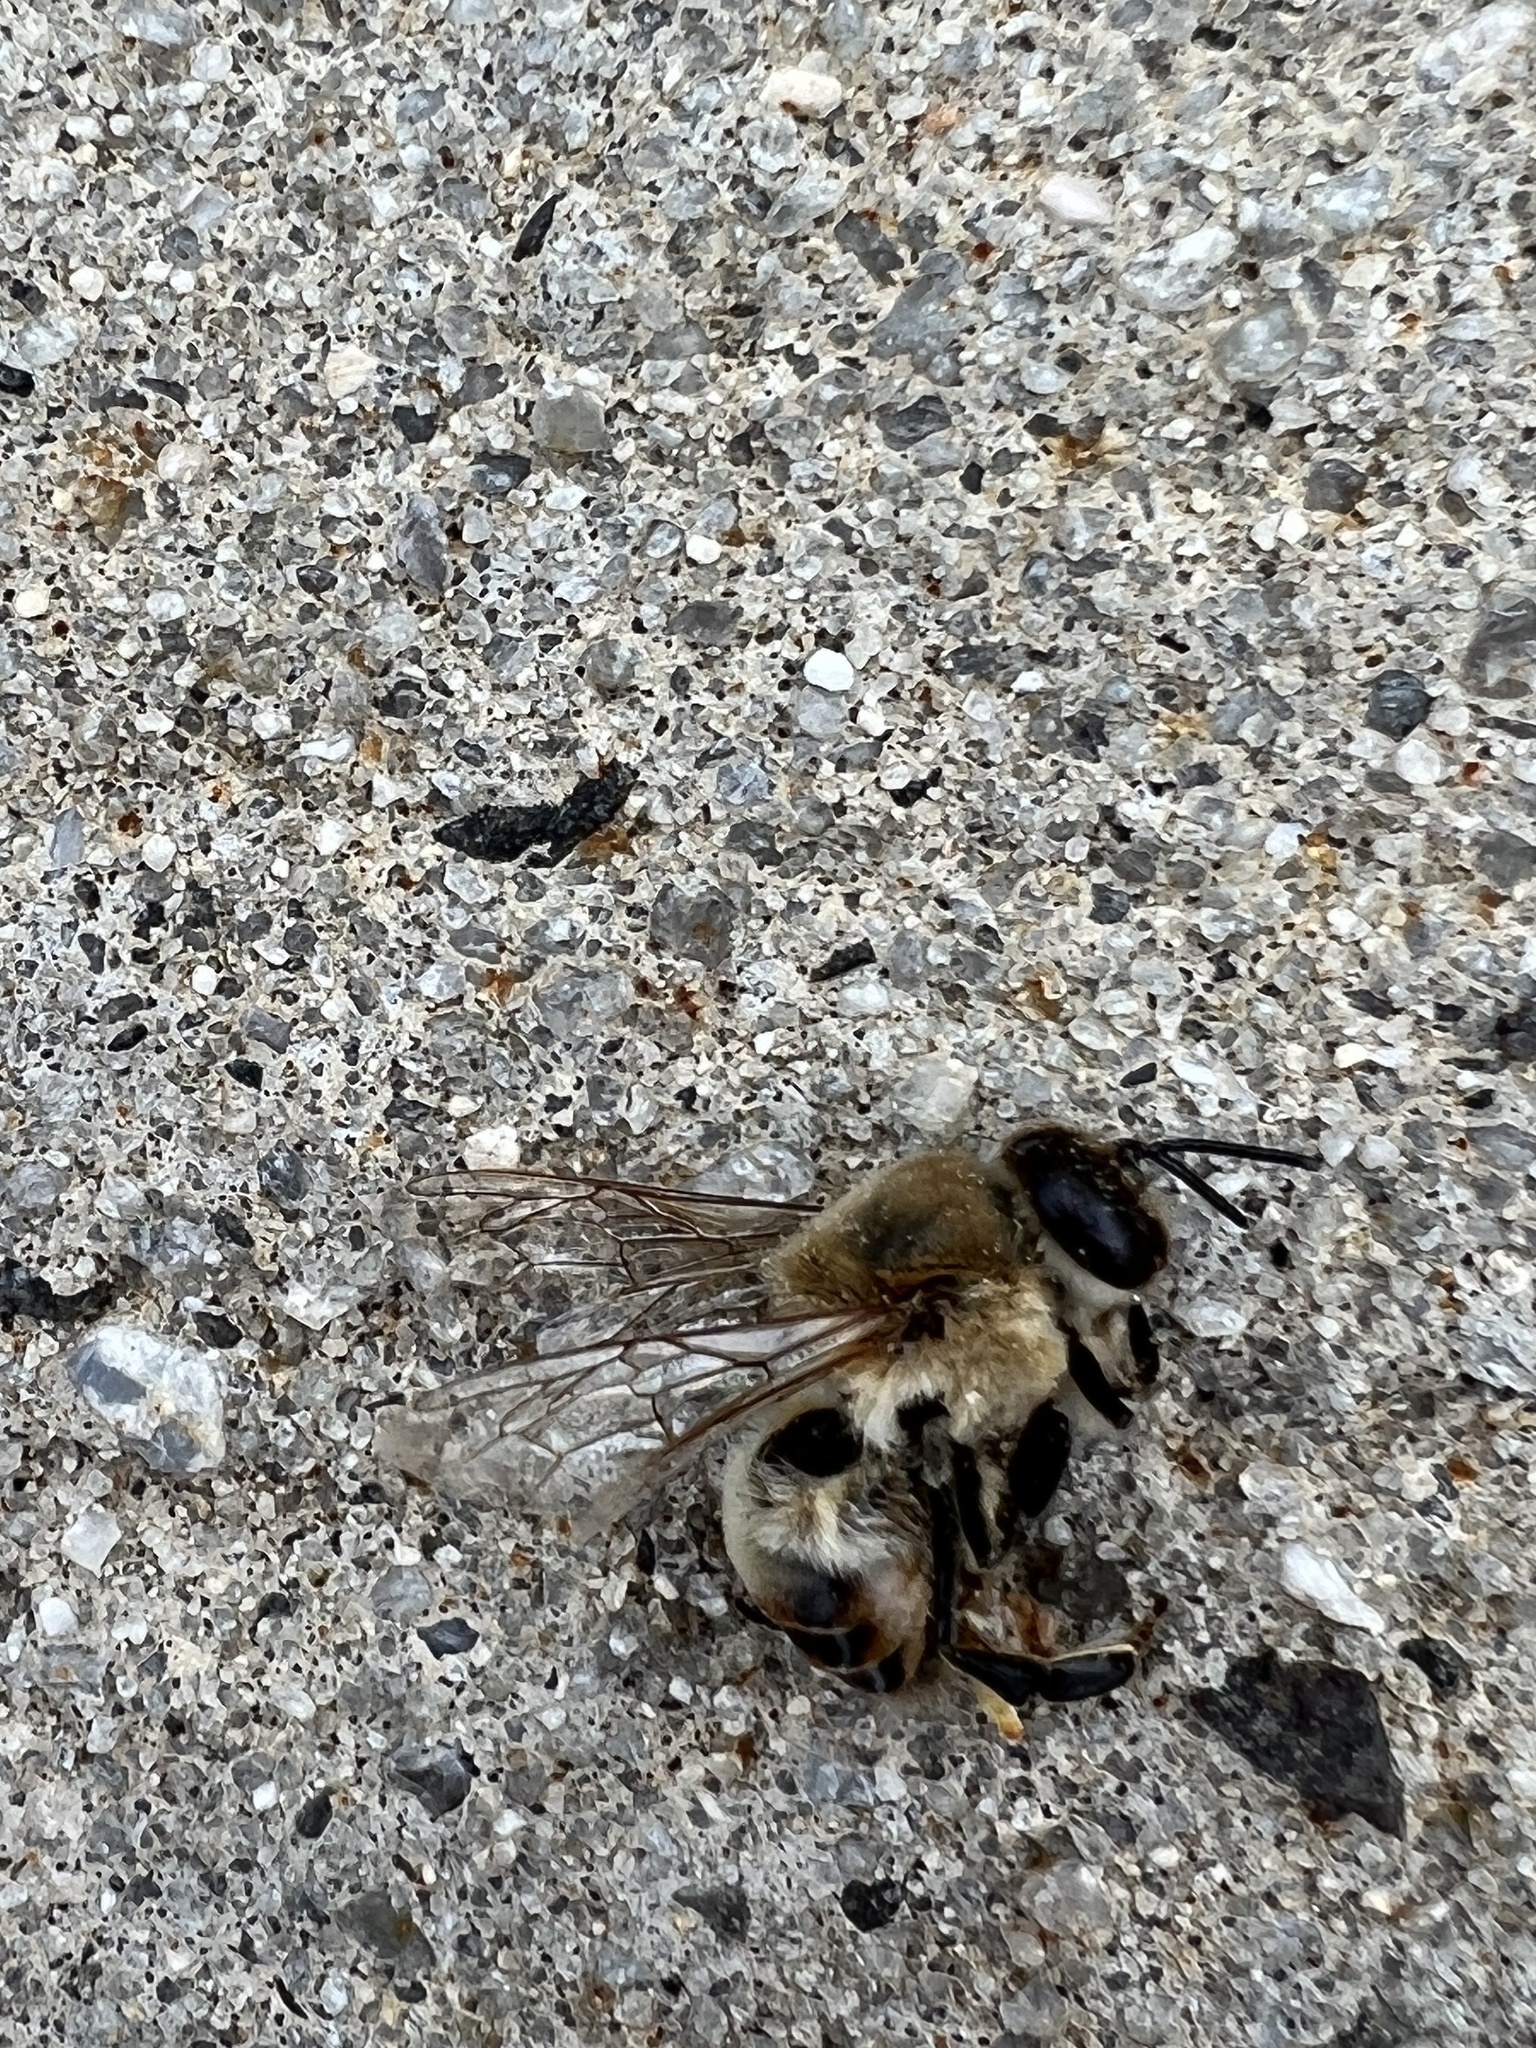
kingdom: Animalia
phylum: Arthropoda
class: Insecta
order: Hymenoptera
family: Apidae
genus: Apis
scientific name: Apis mellifera
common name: Honey bee
